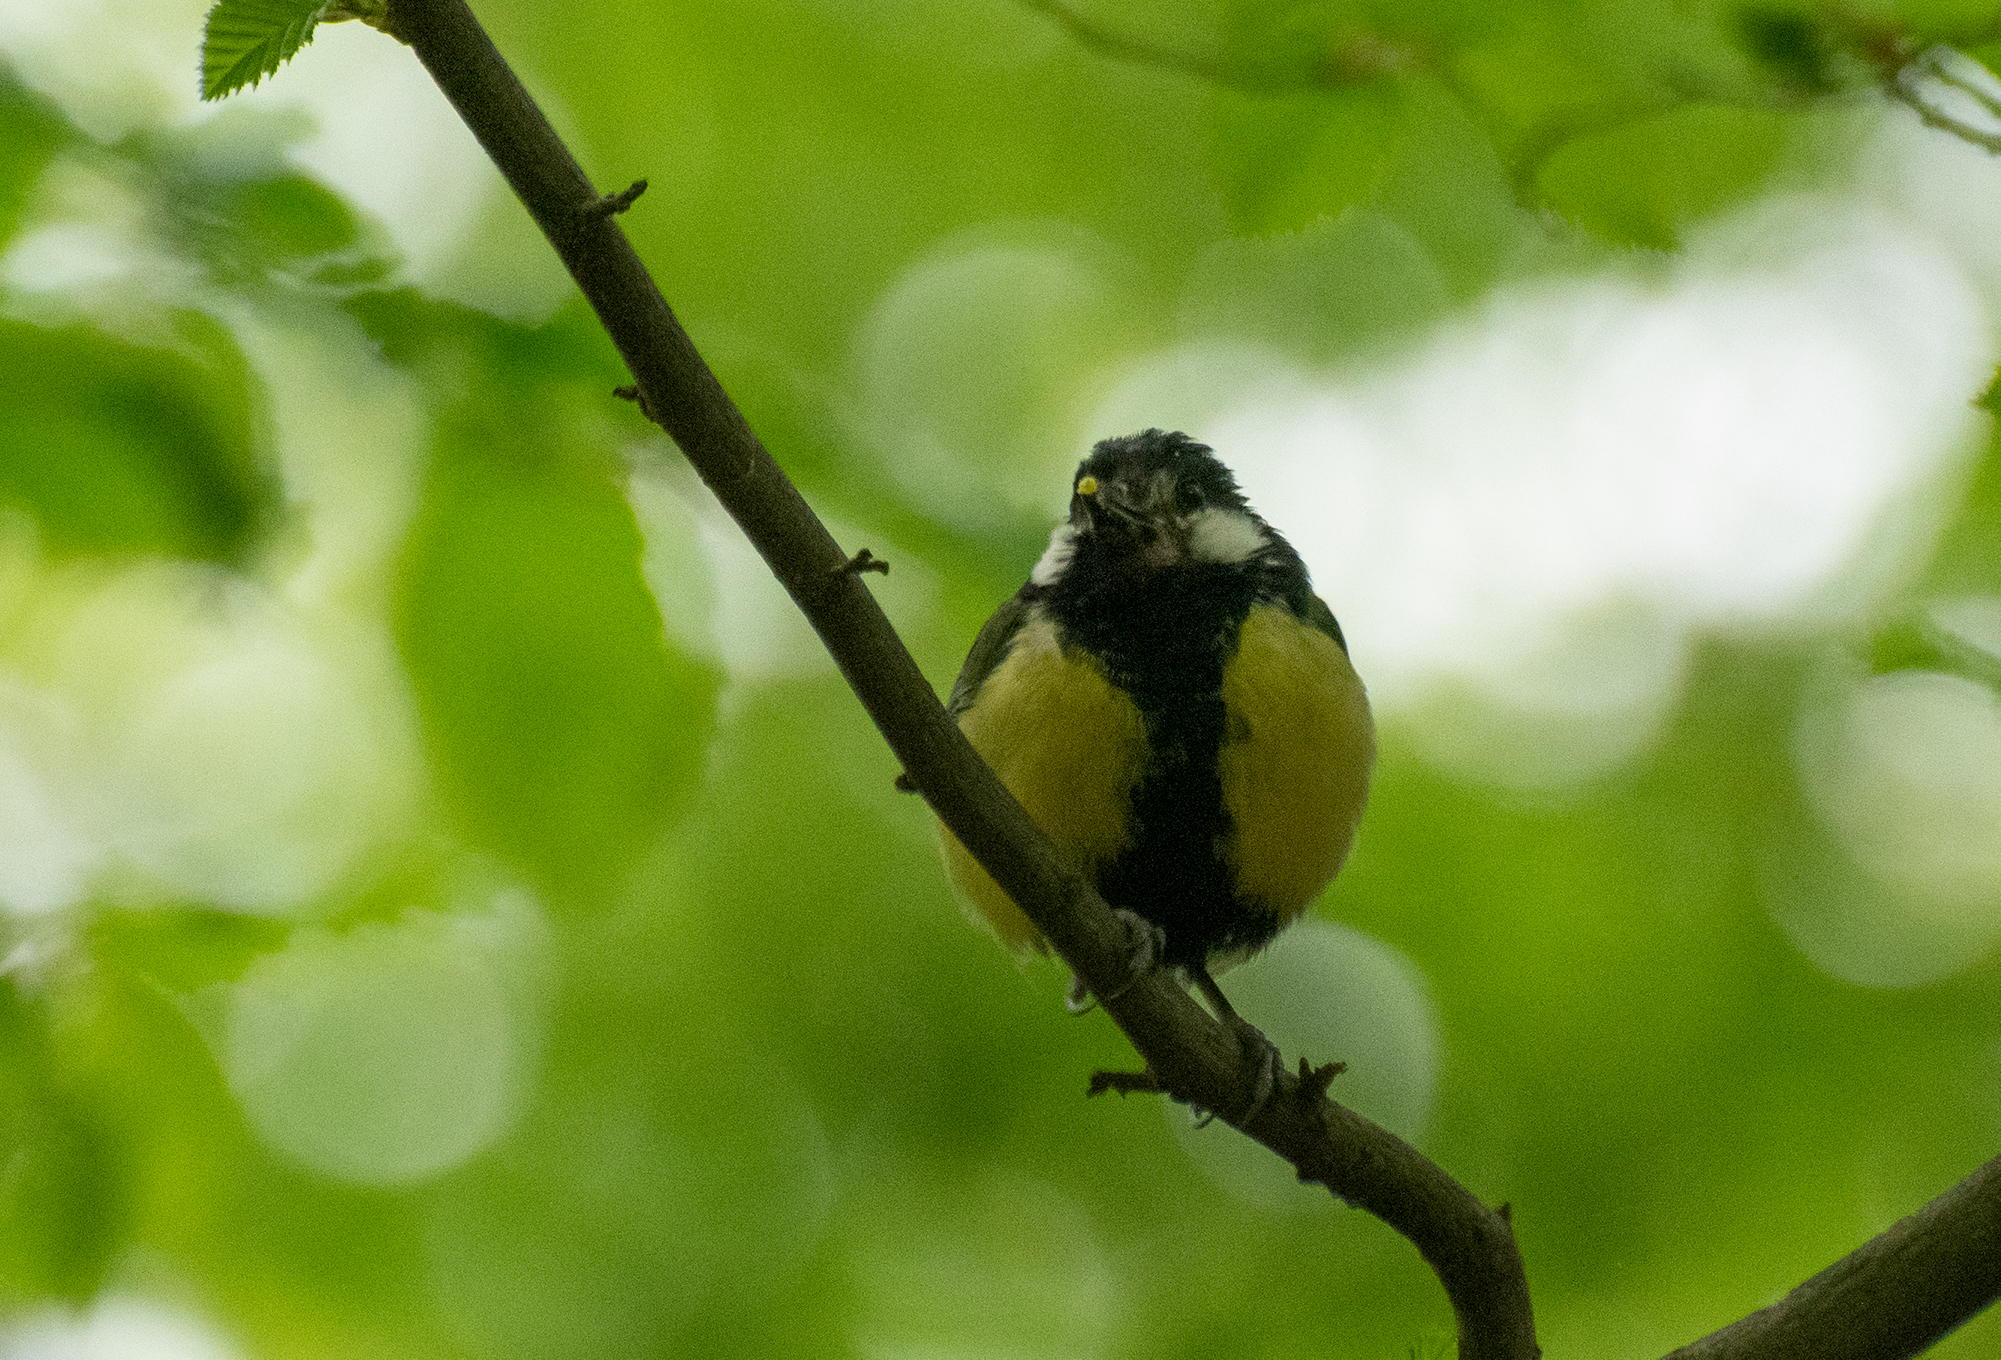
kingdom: Animalia
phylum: Chordata
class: Aves
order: Passeriformes
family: Paridae
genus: Parus
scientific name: Parus major
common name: Great tit
